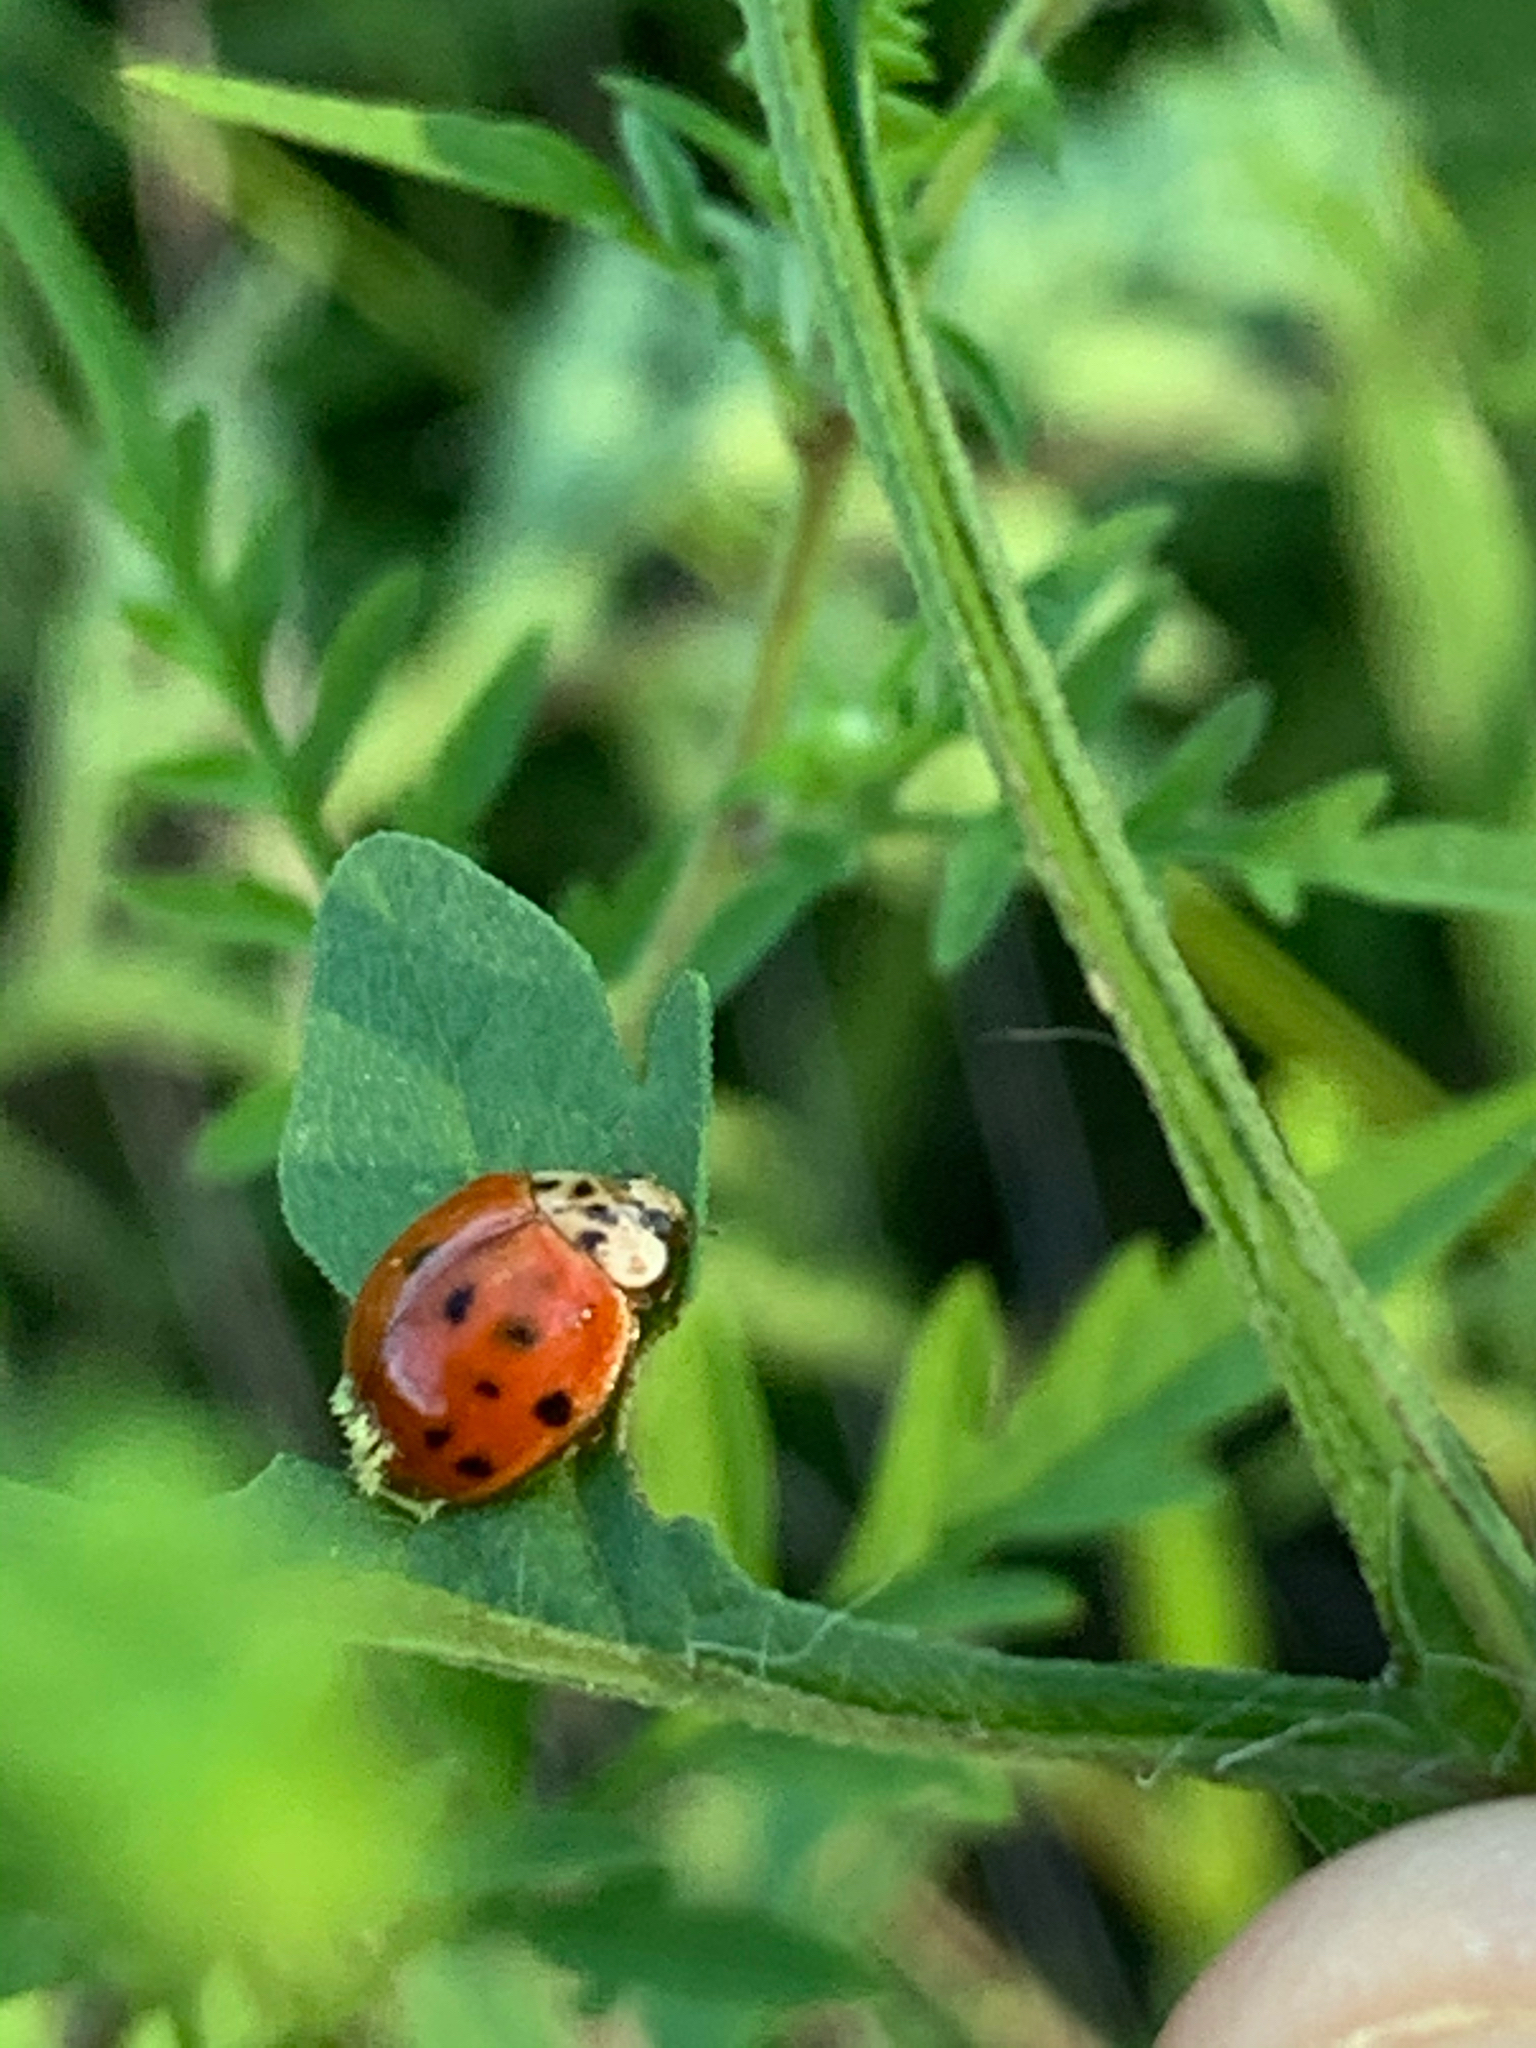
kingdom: Animalia
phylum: Arthropoda
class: Insecta
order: Coleoptera
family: Coccinellidae
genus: Harmonia
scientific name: Harmonia axyridis
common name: Harlequin ladybird
